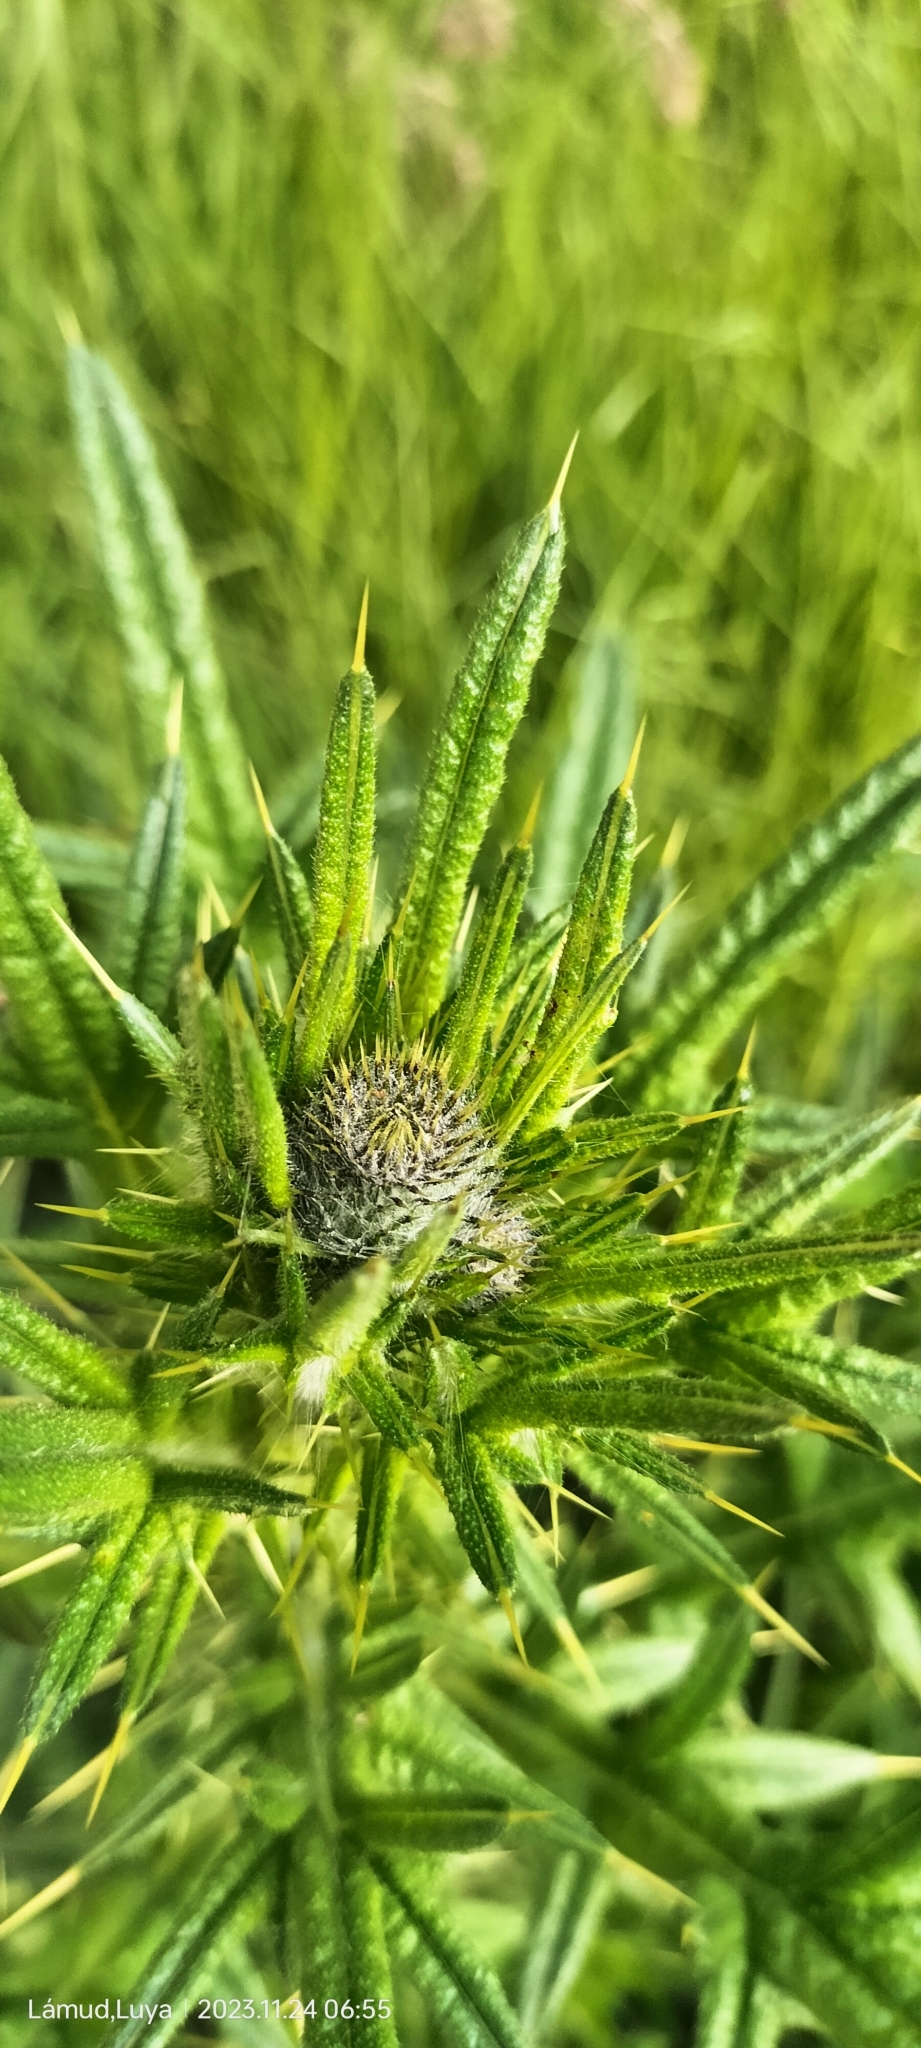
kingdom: Plantae
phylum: Tracheophyta
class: Magnoliopsida
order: Asterales
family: Asteraceae
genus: Cirsium
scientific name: Cirsium vulgare
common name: Bull thistle
